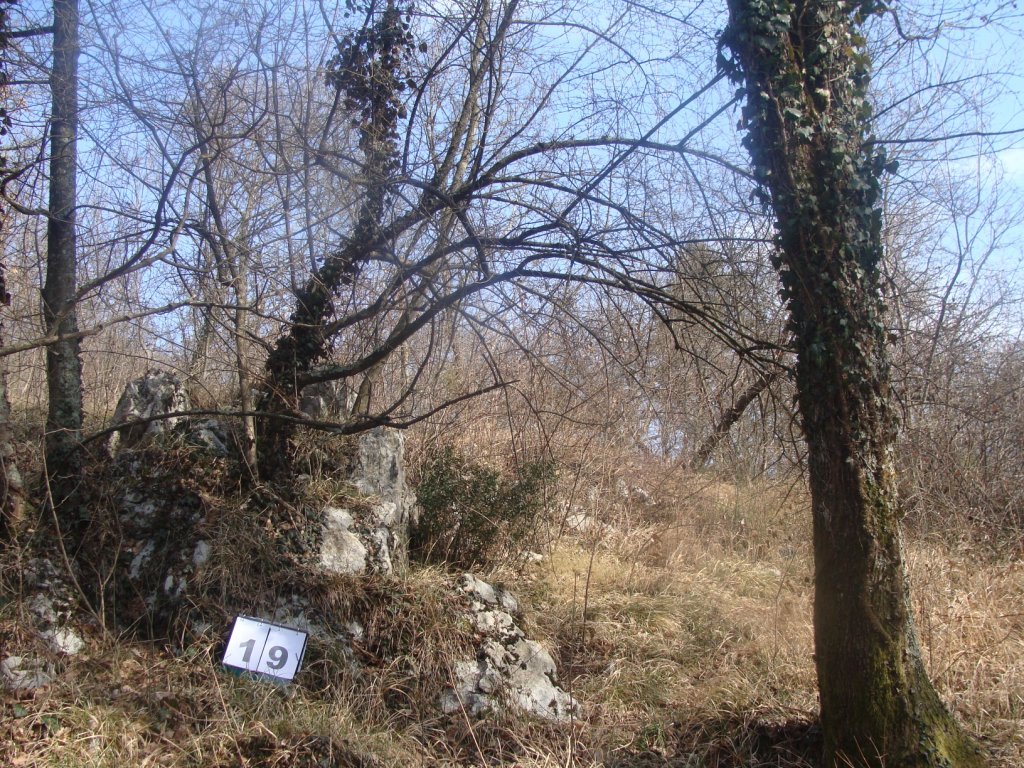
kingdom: Plantae
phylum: Tracheophyta
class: Magnoliopsida
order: Cornales
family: Cornaceae
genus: Cornus
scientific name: Cornus mas
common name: Cornelian-cherry
